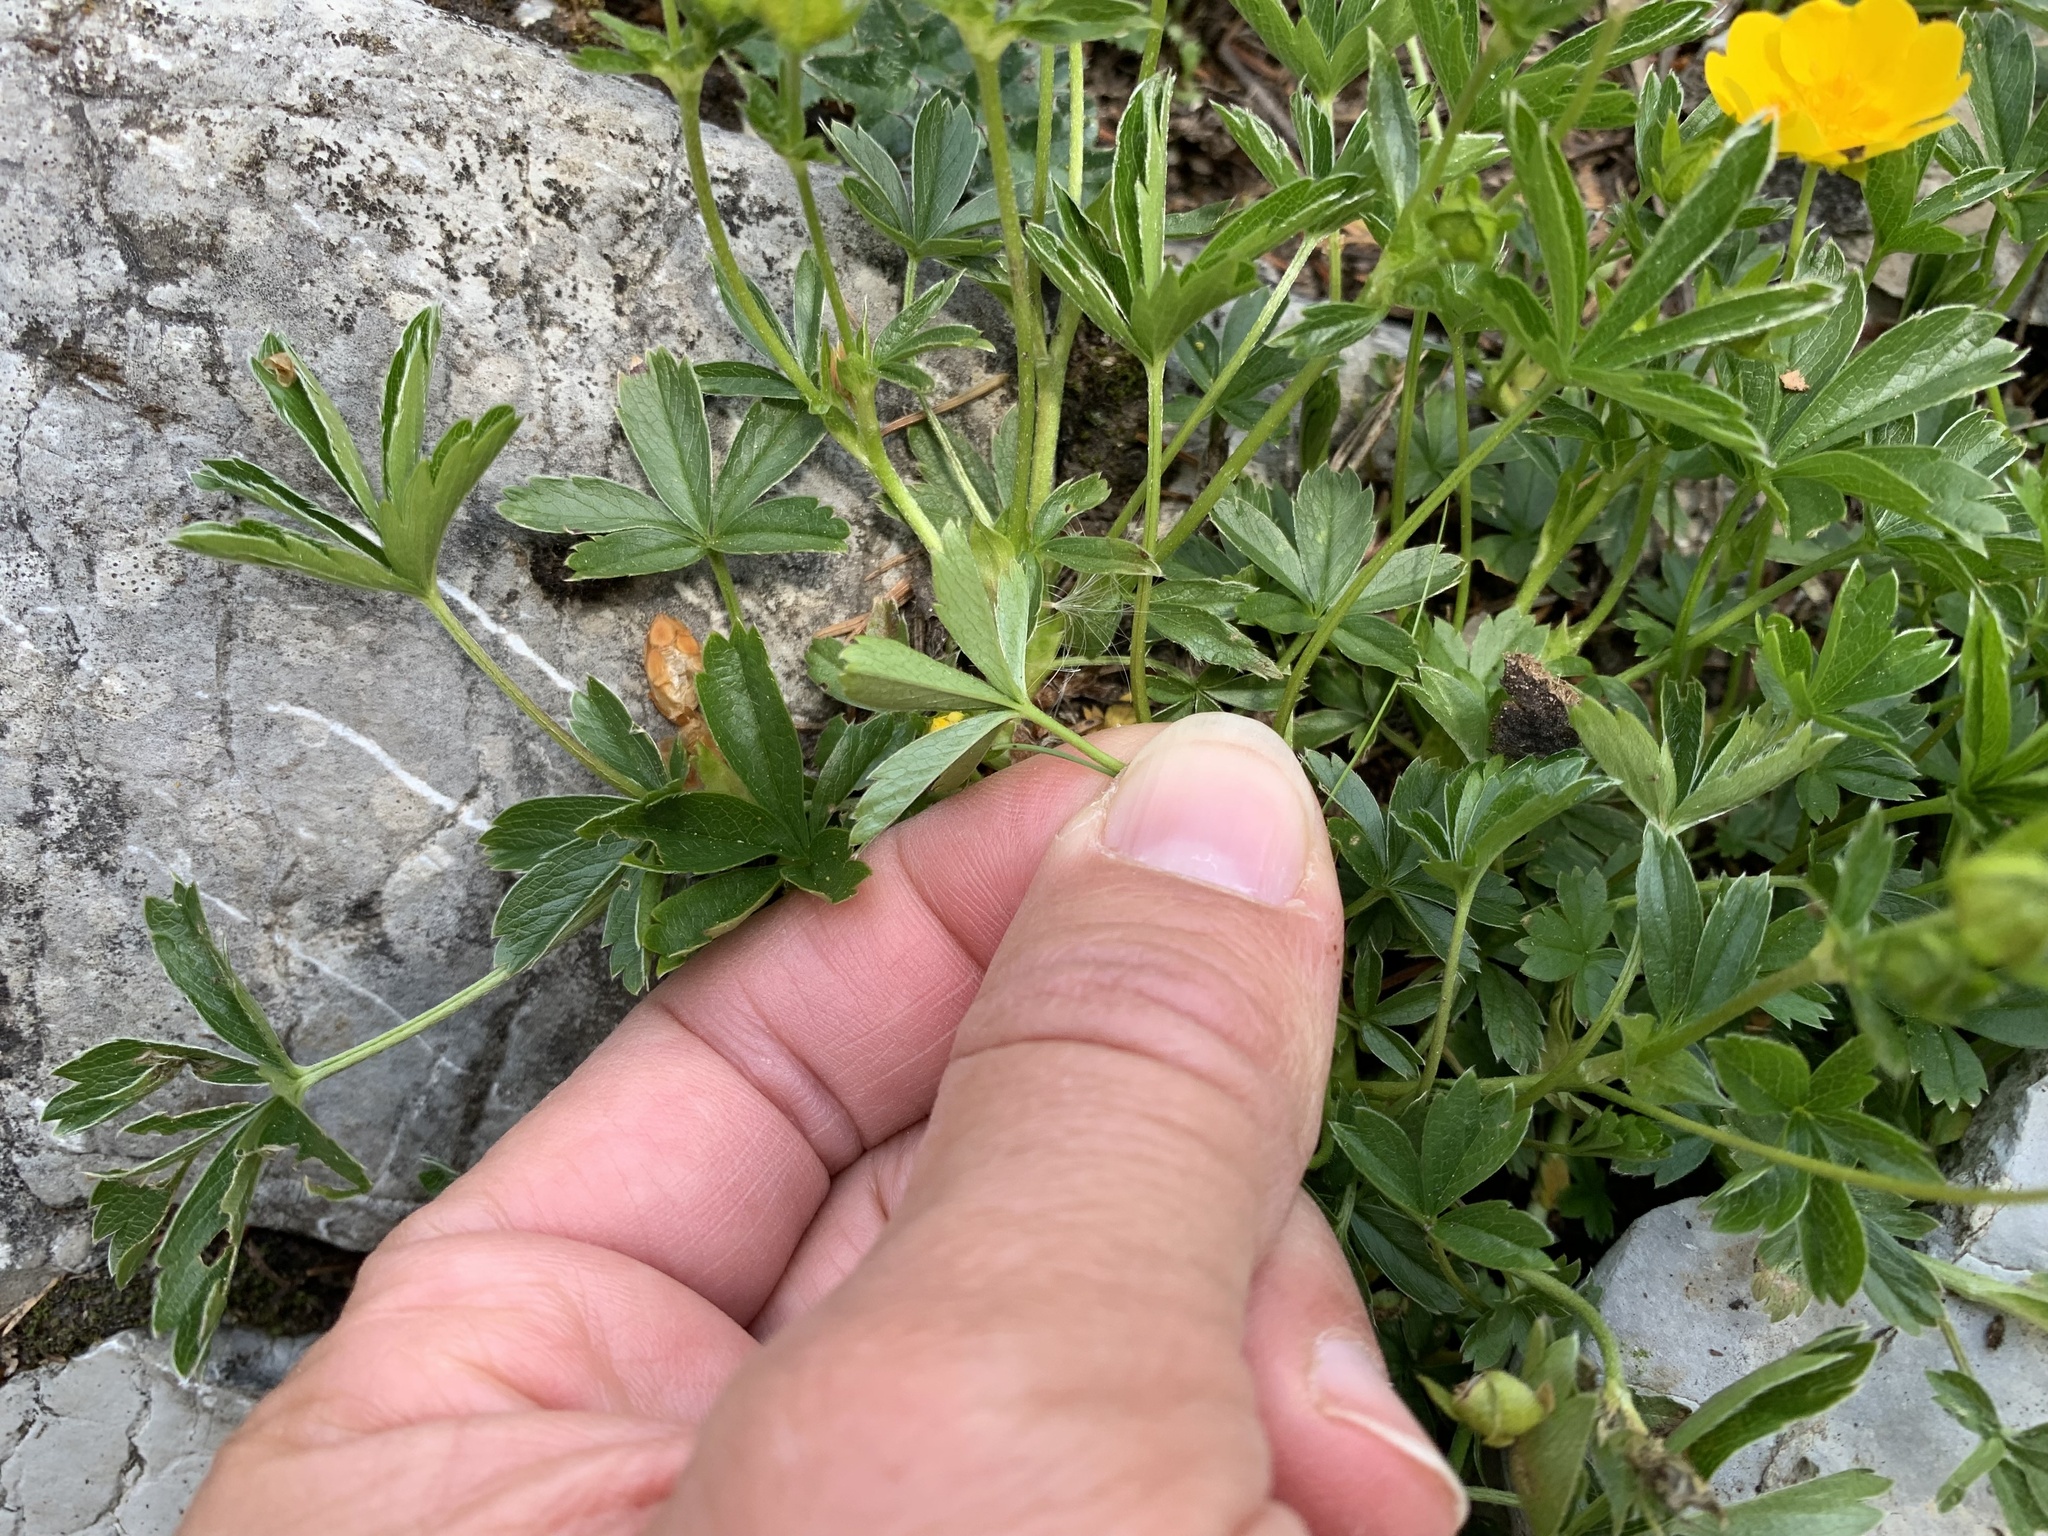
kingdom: Plantae
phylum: Tracheophyta
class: Magnoliopsida
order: Rosales
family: Rosaceae
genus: Potentilla
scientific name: Potentilla aurea
